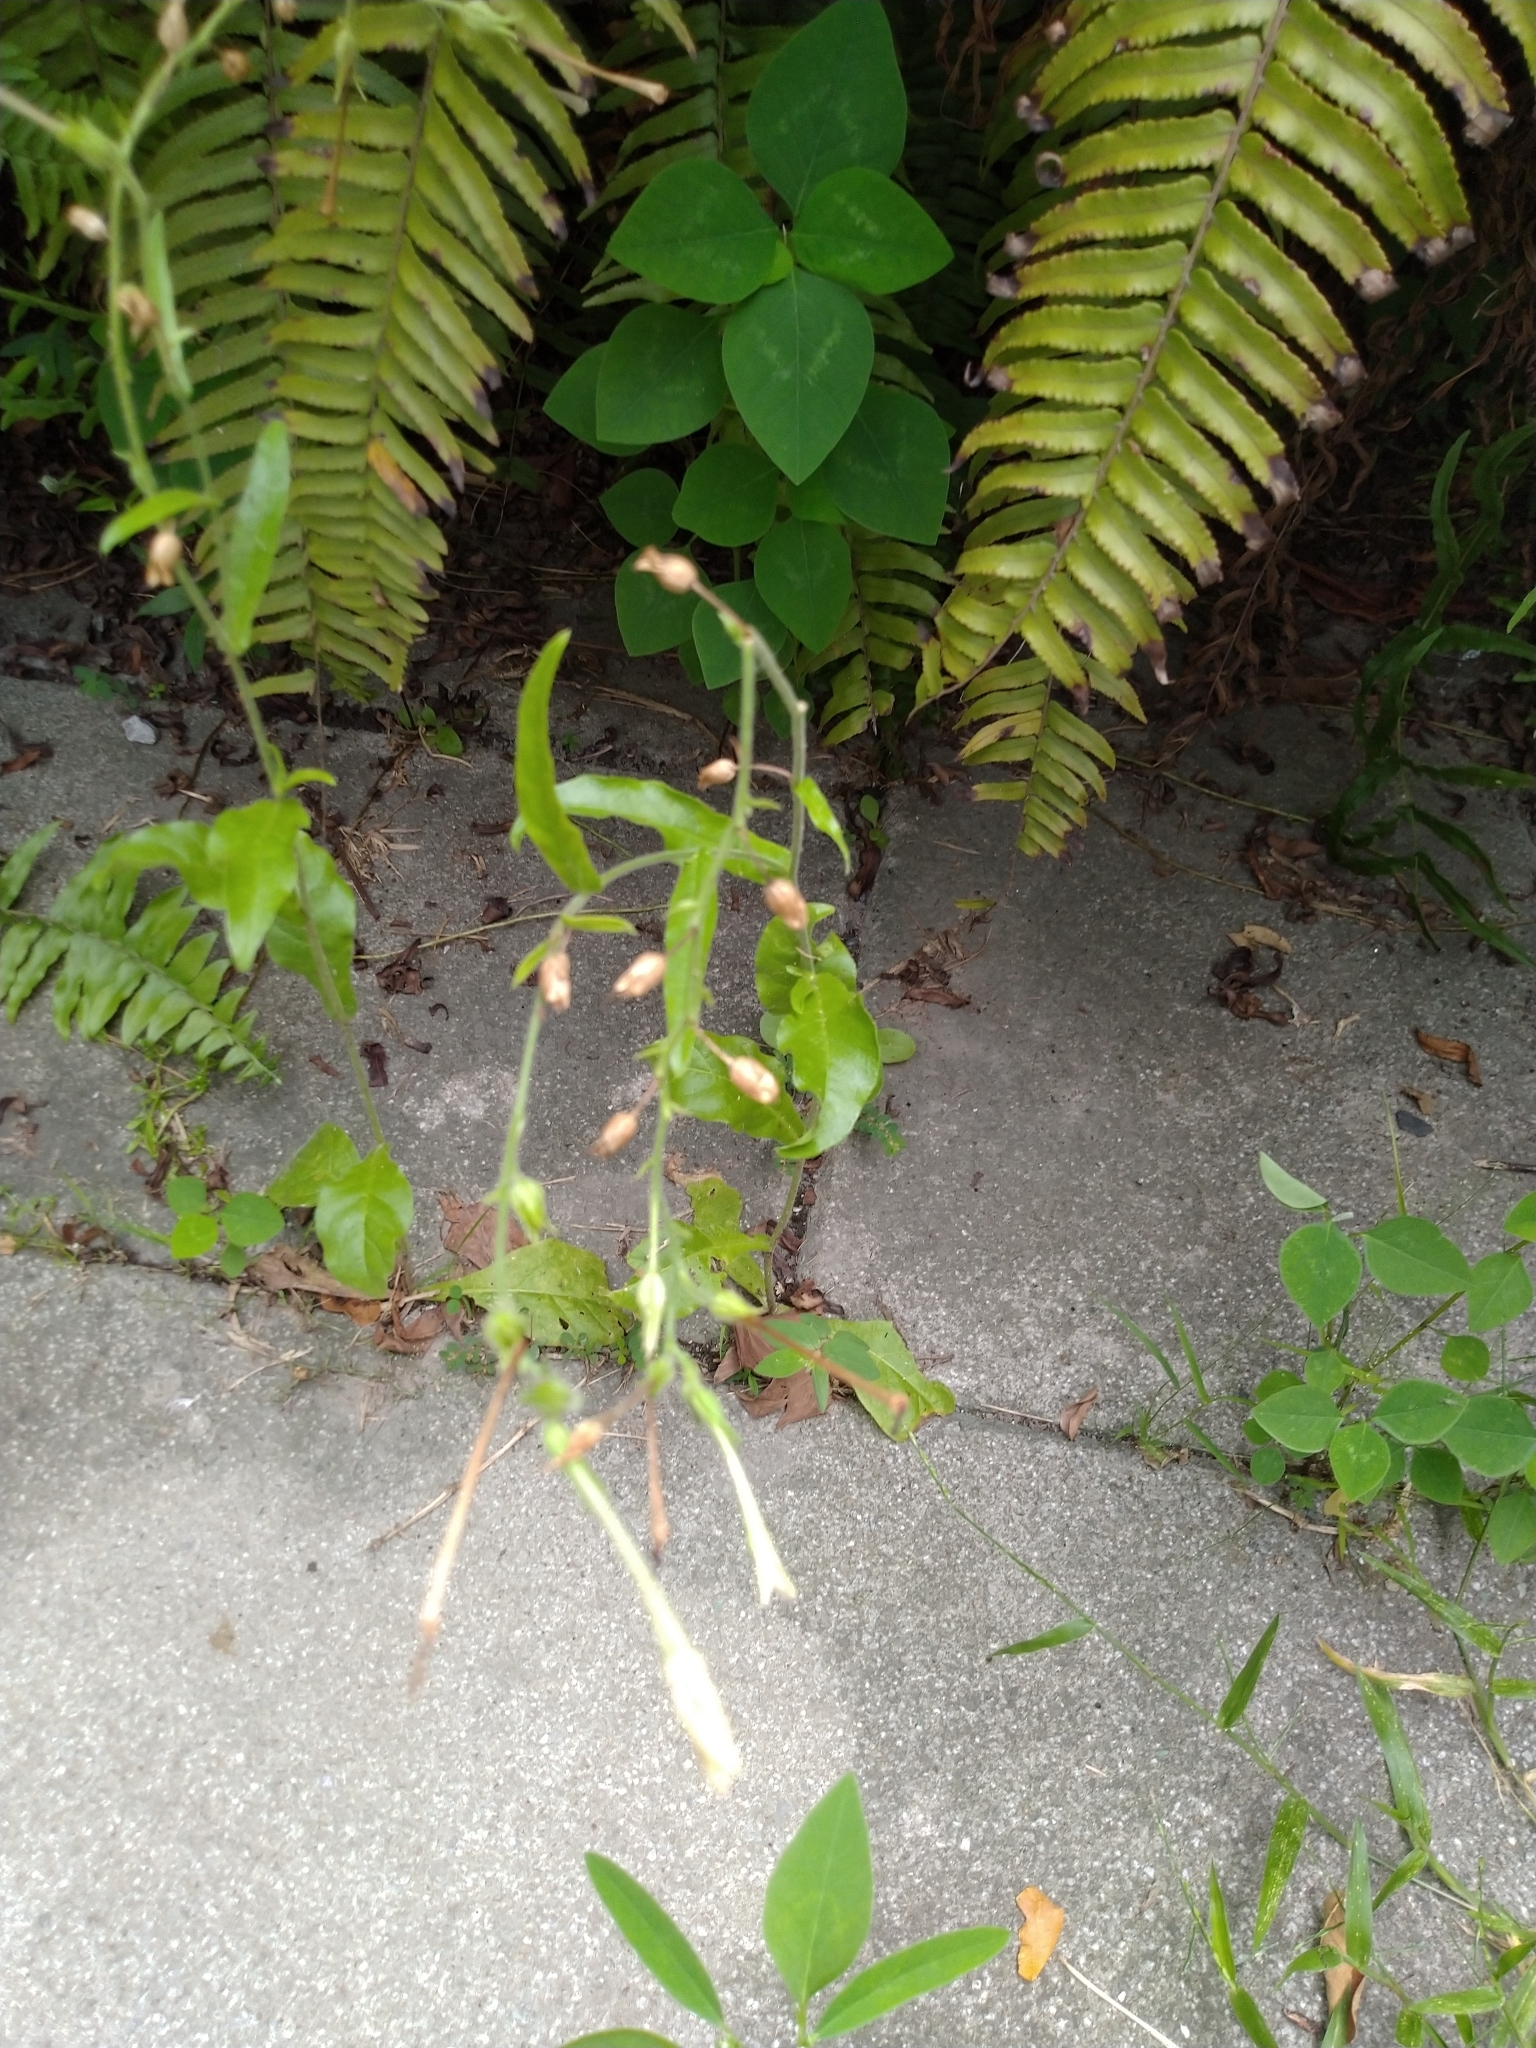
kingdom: Plantae
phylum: Tracheophyta
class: Magnoliopsida
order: Solanales
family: Solanaceae
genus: Nicotiana
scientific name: Nicotiana plumbaginifolia
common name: Tex-mex tobacco
